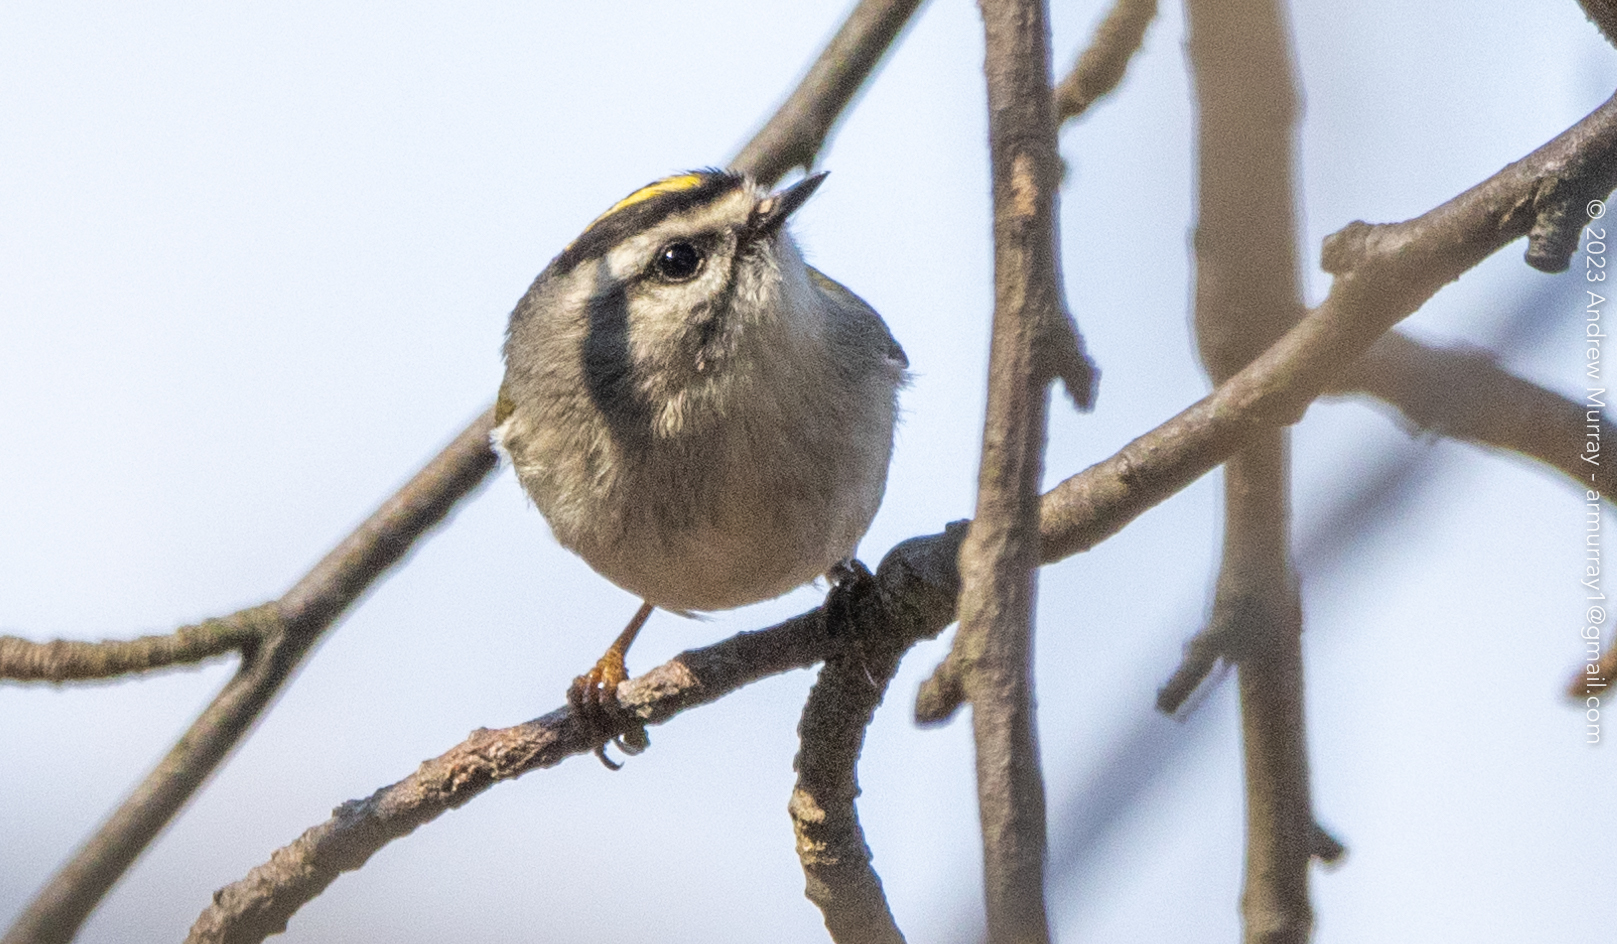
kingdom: Animalia
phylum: Chordata
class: Aves
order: Passeriformes
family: Regulidae
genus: Regulus
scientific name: Regulus satrapa
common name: Golden-crowned kinglet
